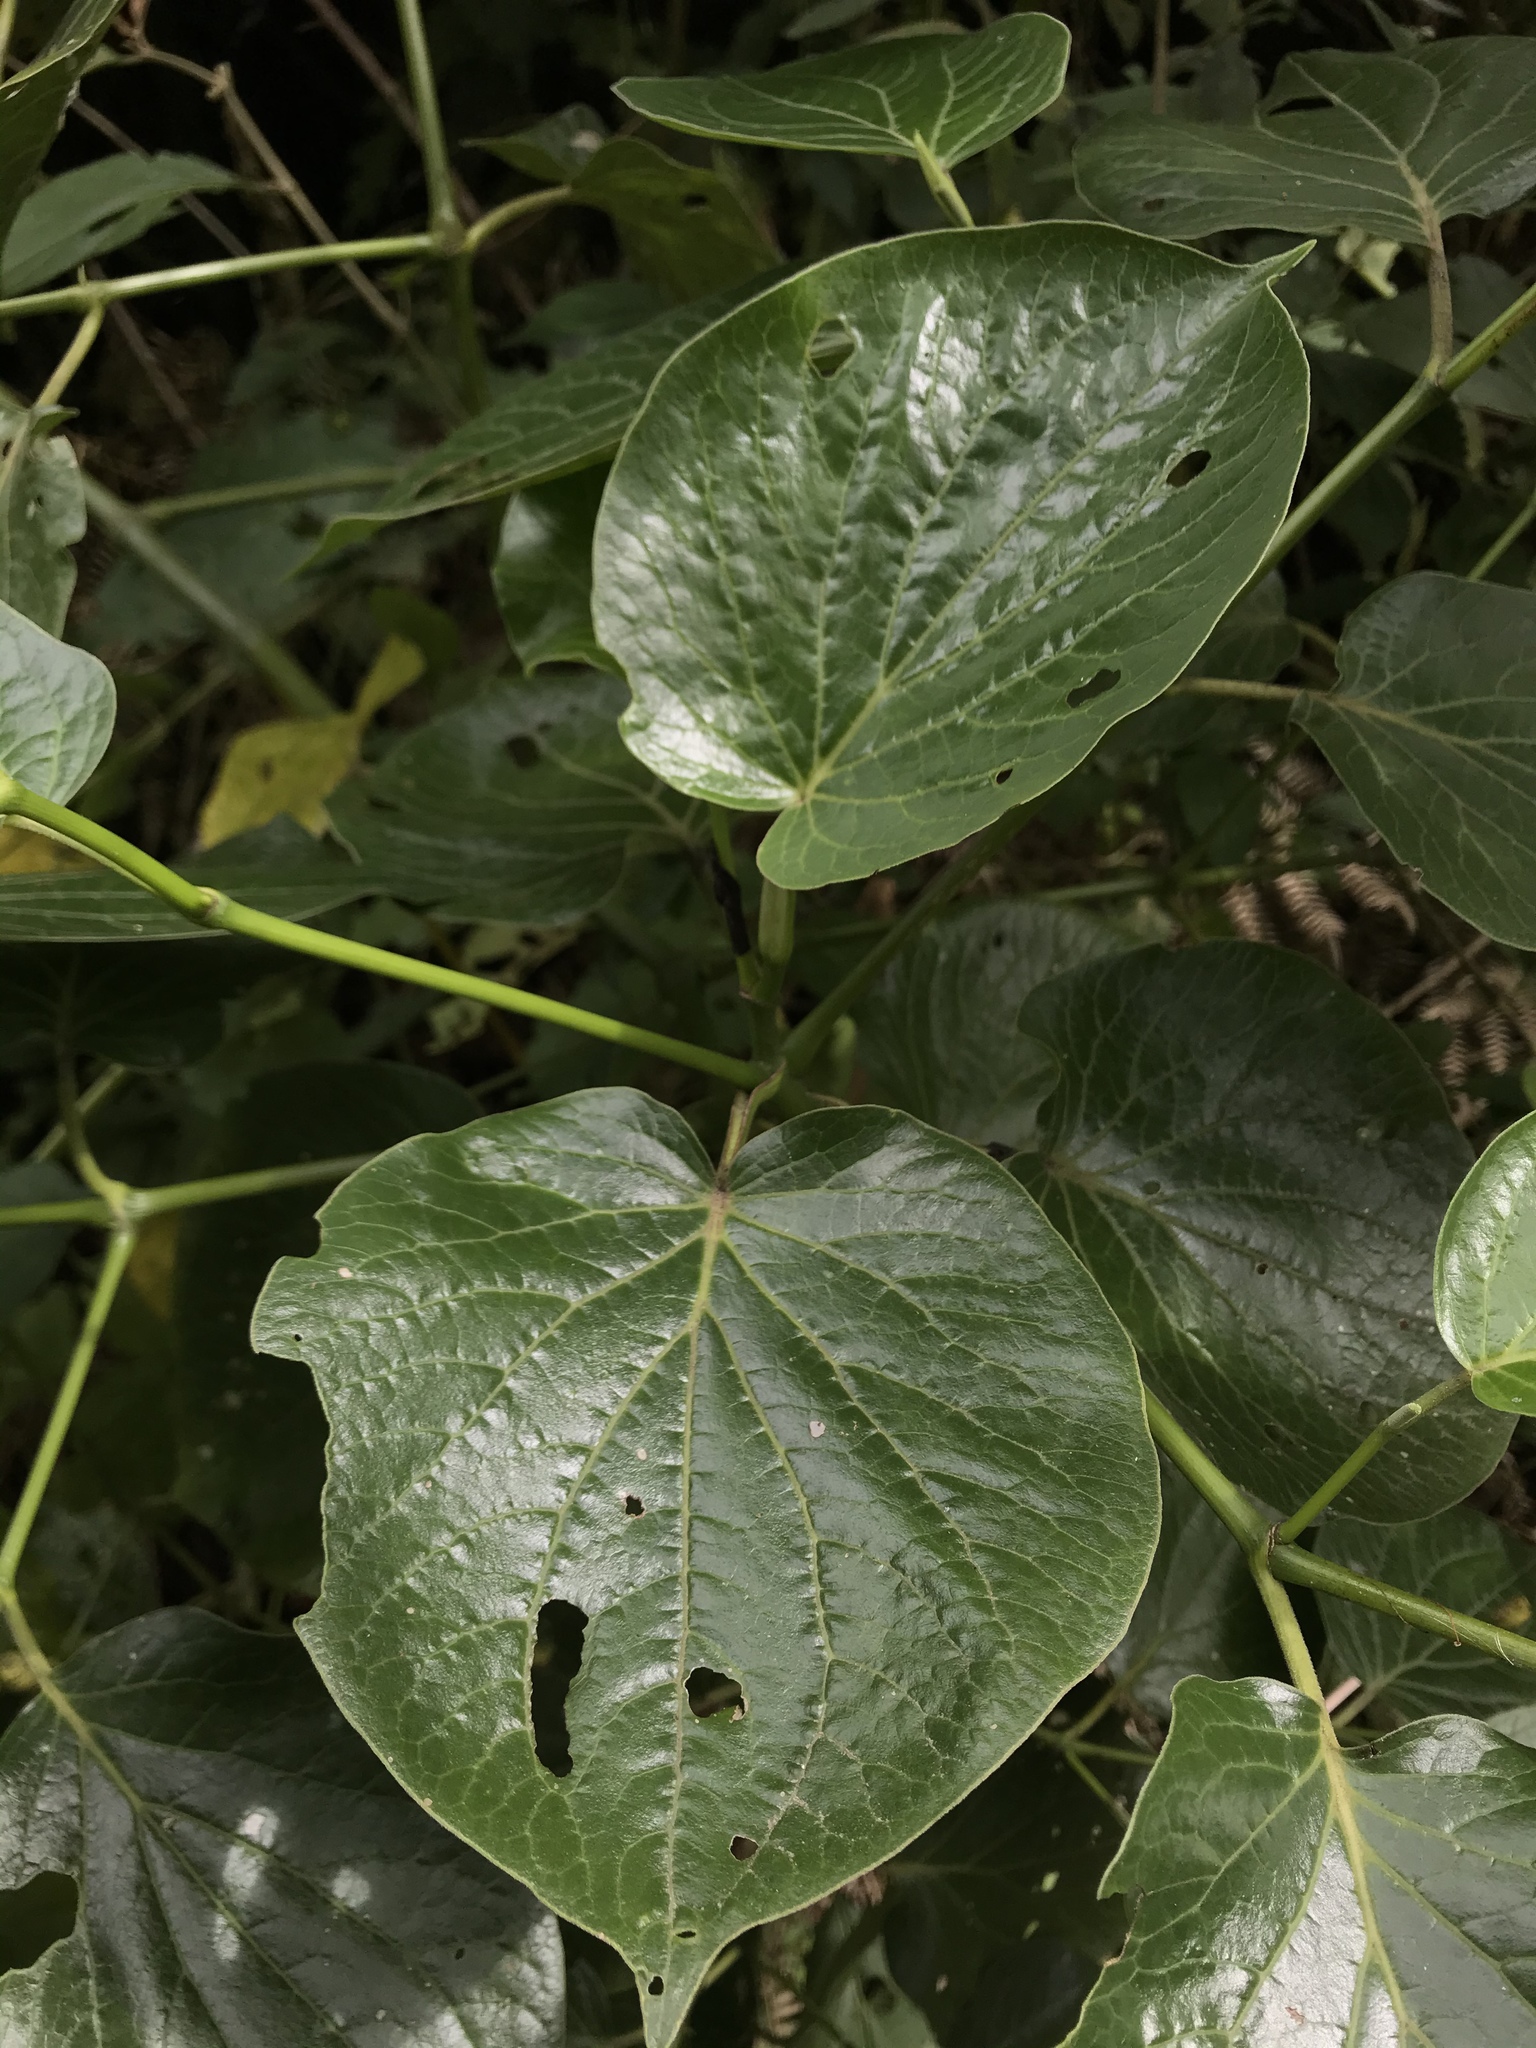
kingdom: Plantae
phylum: Tracheophyta
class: Magnoliopsida
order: Piperales
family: Piperaceae
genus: Piper
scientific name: Piper barbatum
